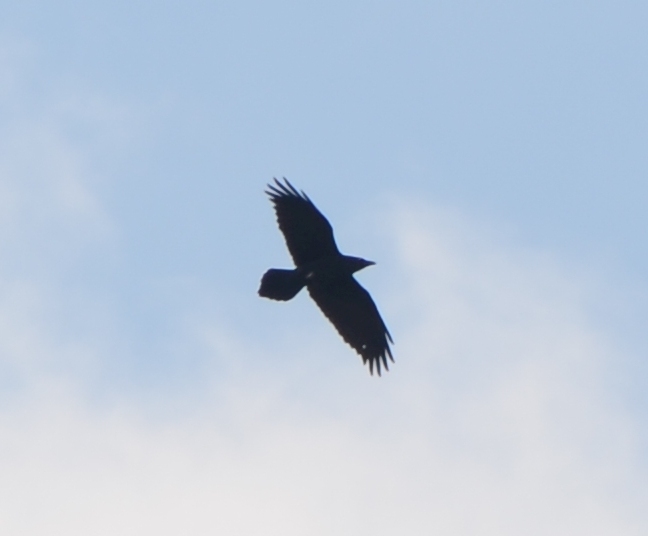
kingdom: Animalia
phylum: Chordata
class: Aves
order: Passeriformes
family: Corvidae
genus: Corvus
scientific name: Corvus corax
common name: Common raven
